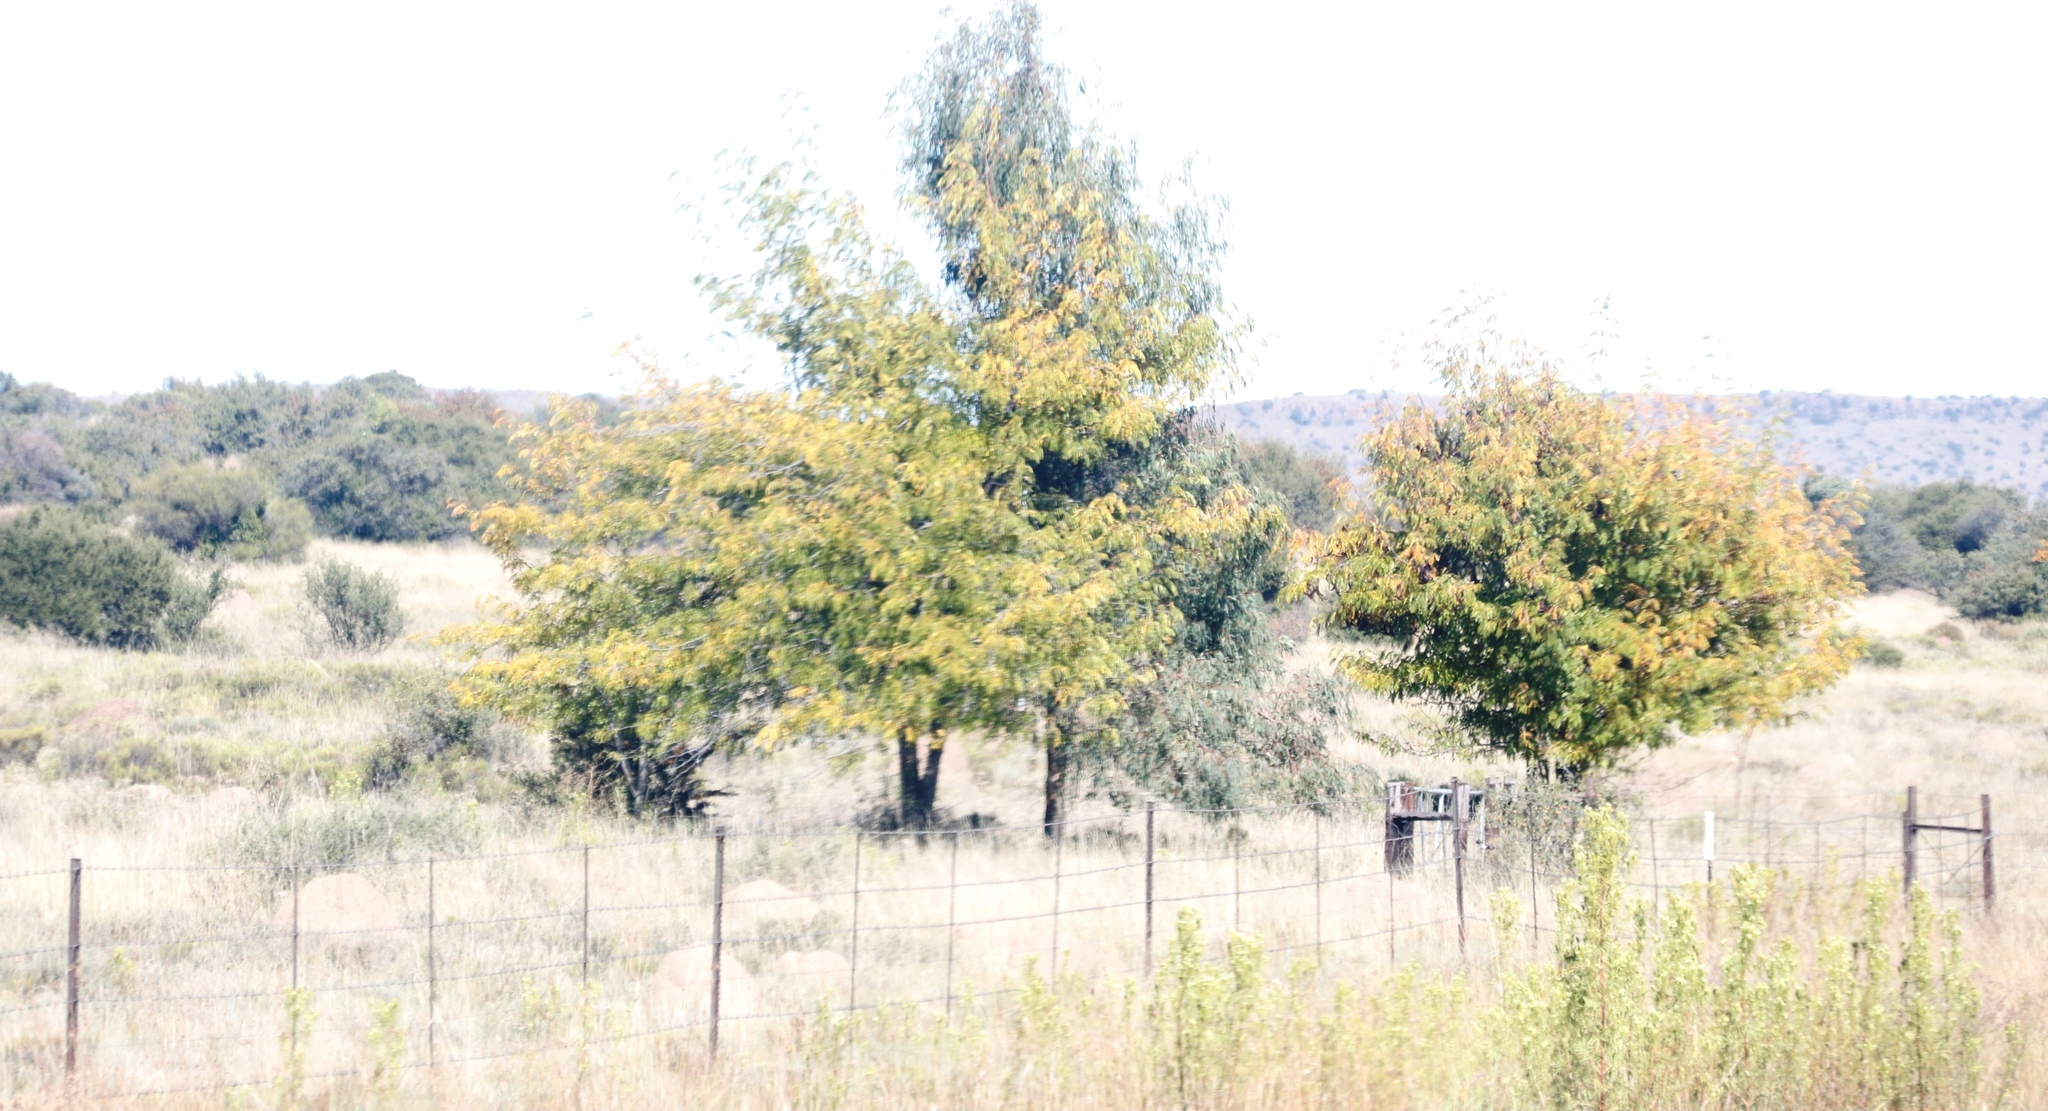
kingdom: Plantae
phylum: Tracheophyta
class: Magnoliopsida
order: Fabales
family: Fabaceae
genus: Gleditsia
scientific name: Gleditsia triacanthos
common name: Common honeylocust
